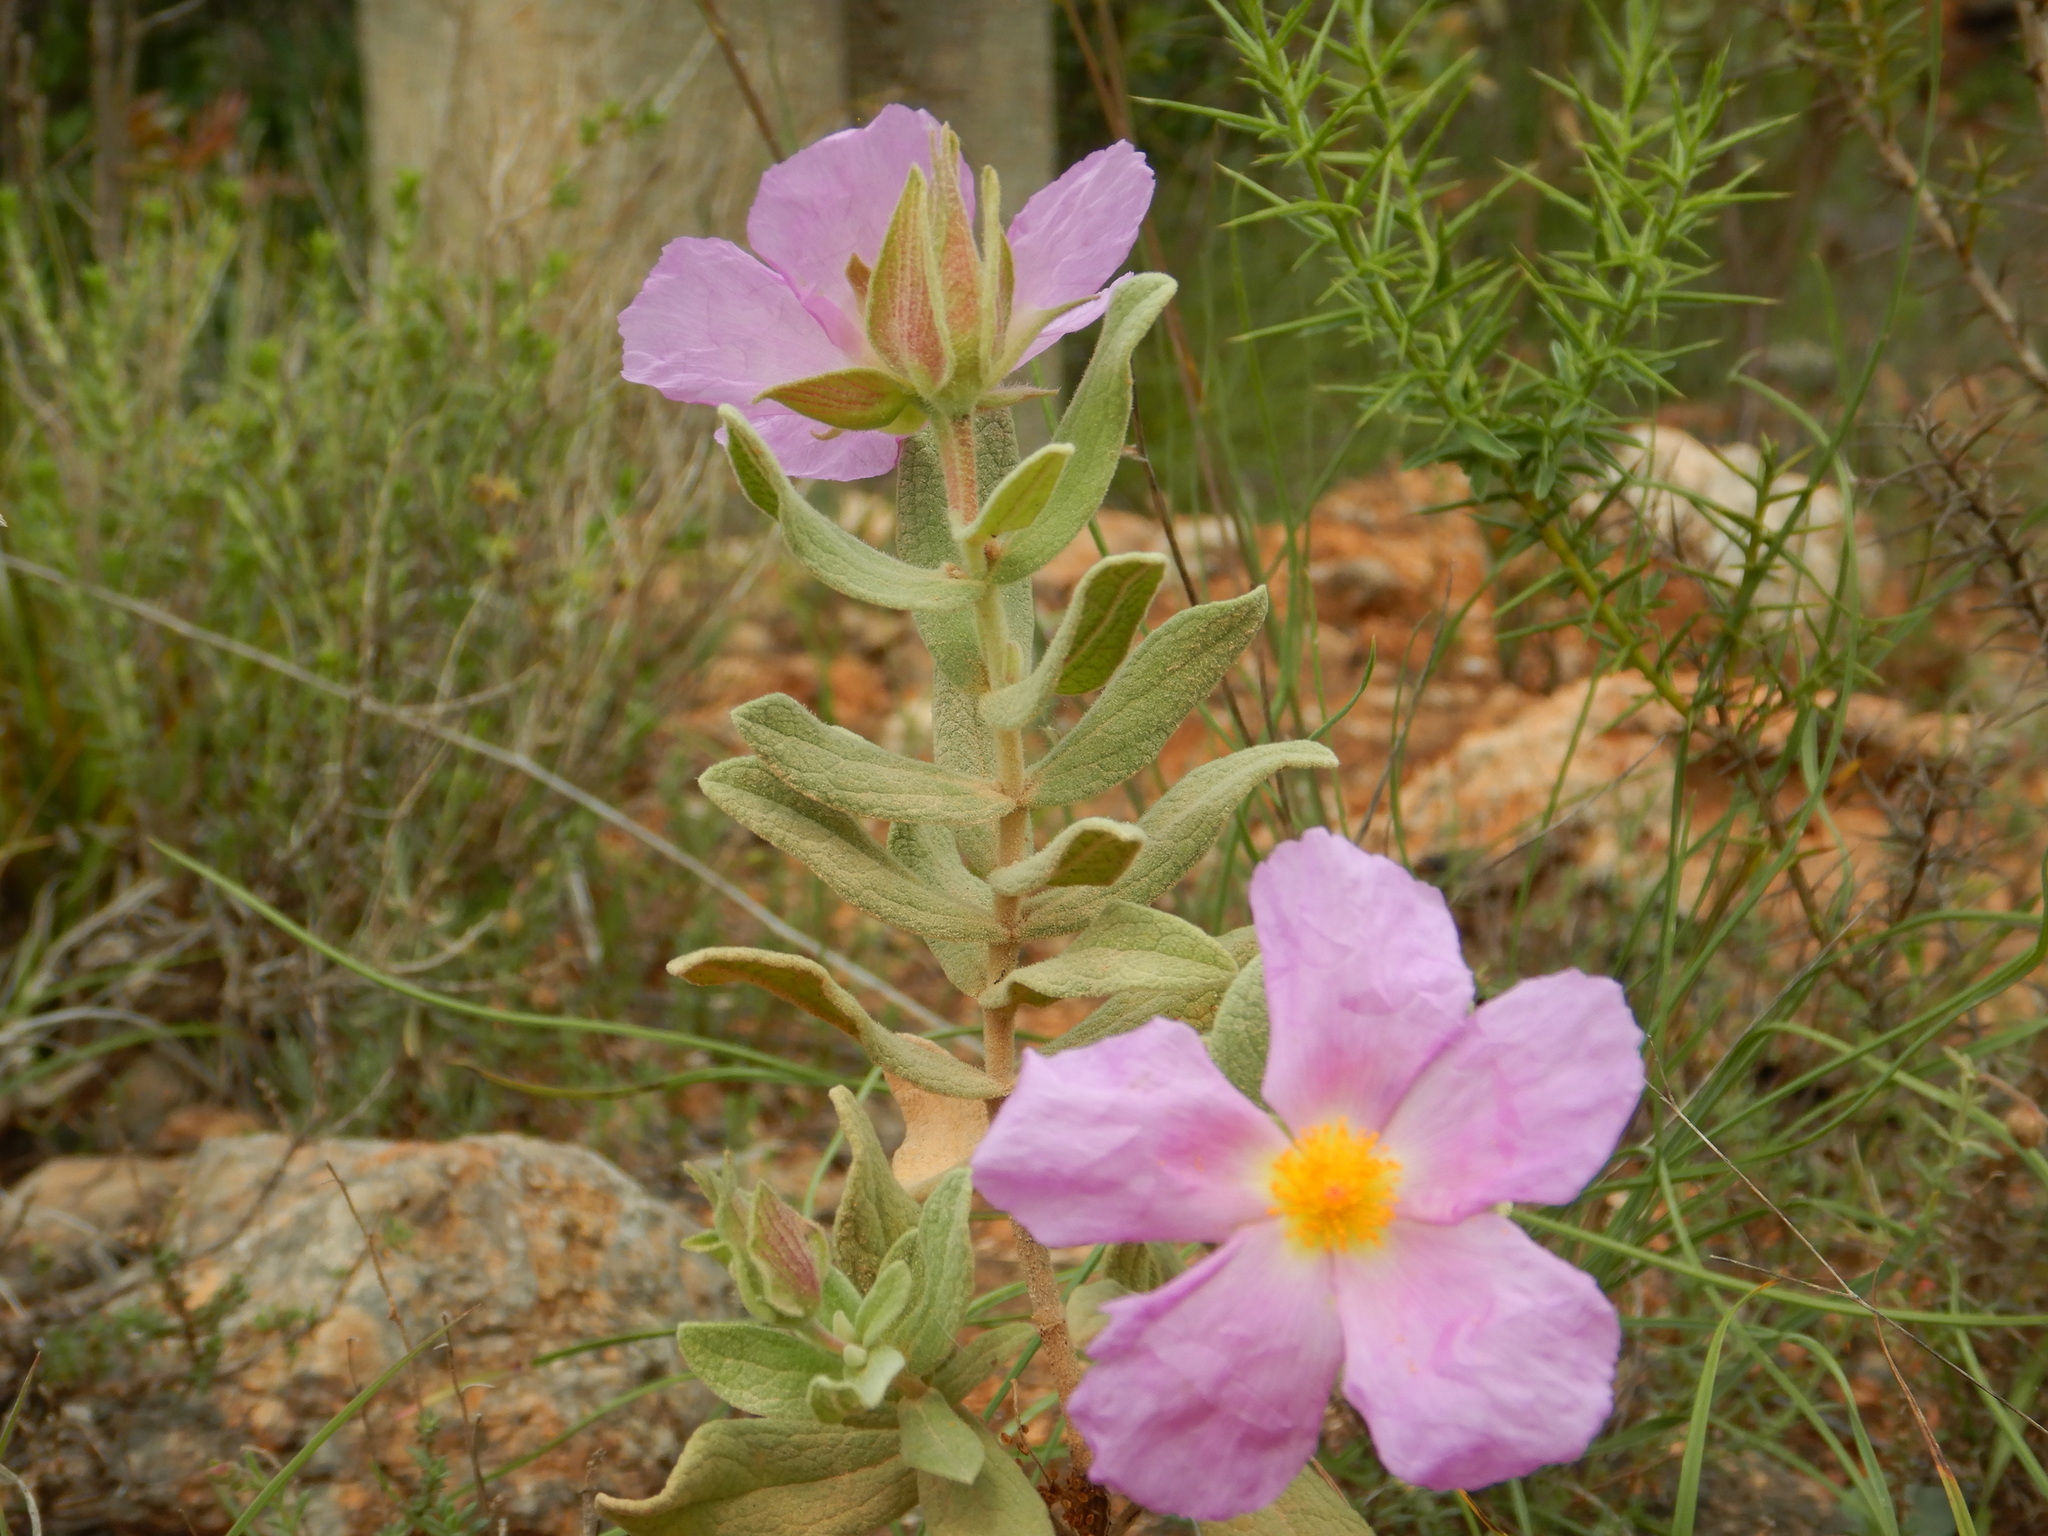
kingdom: Plantae
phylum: Tracheophyta
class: Magnoliopsida
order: Malvales
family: Cistaceae
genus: Cistus
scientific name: Cistus albidus
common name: White-leaf rock-rose
